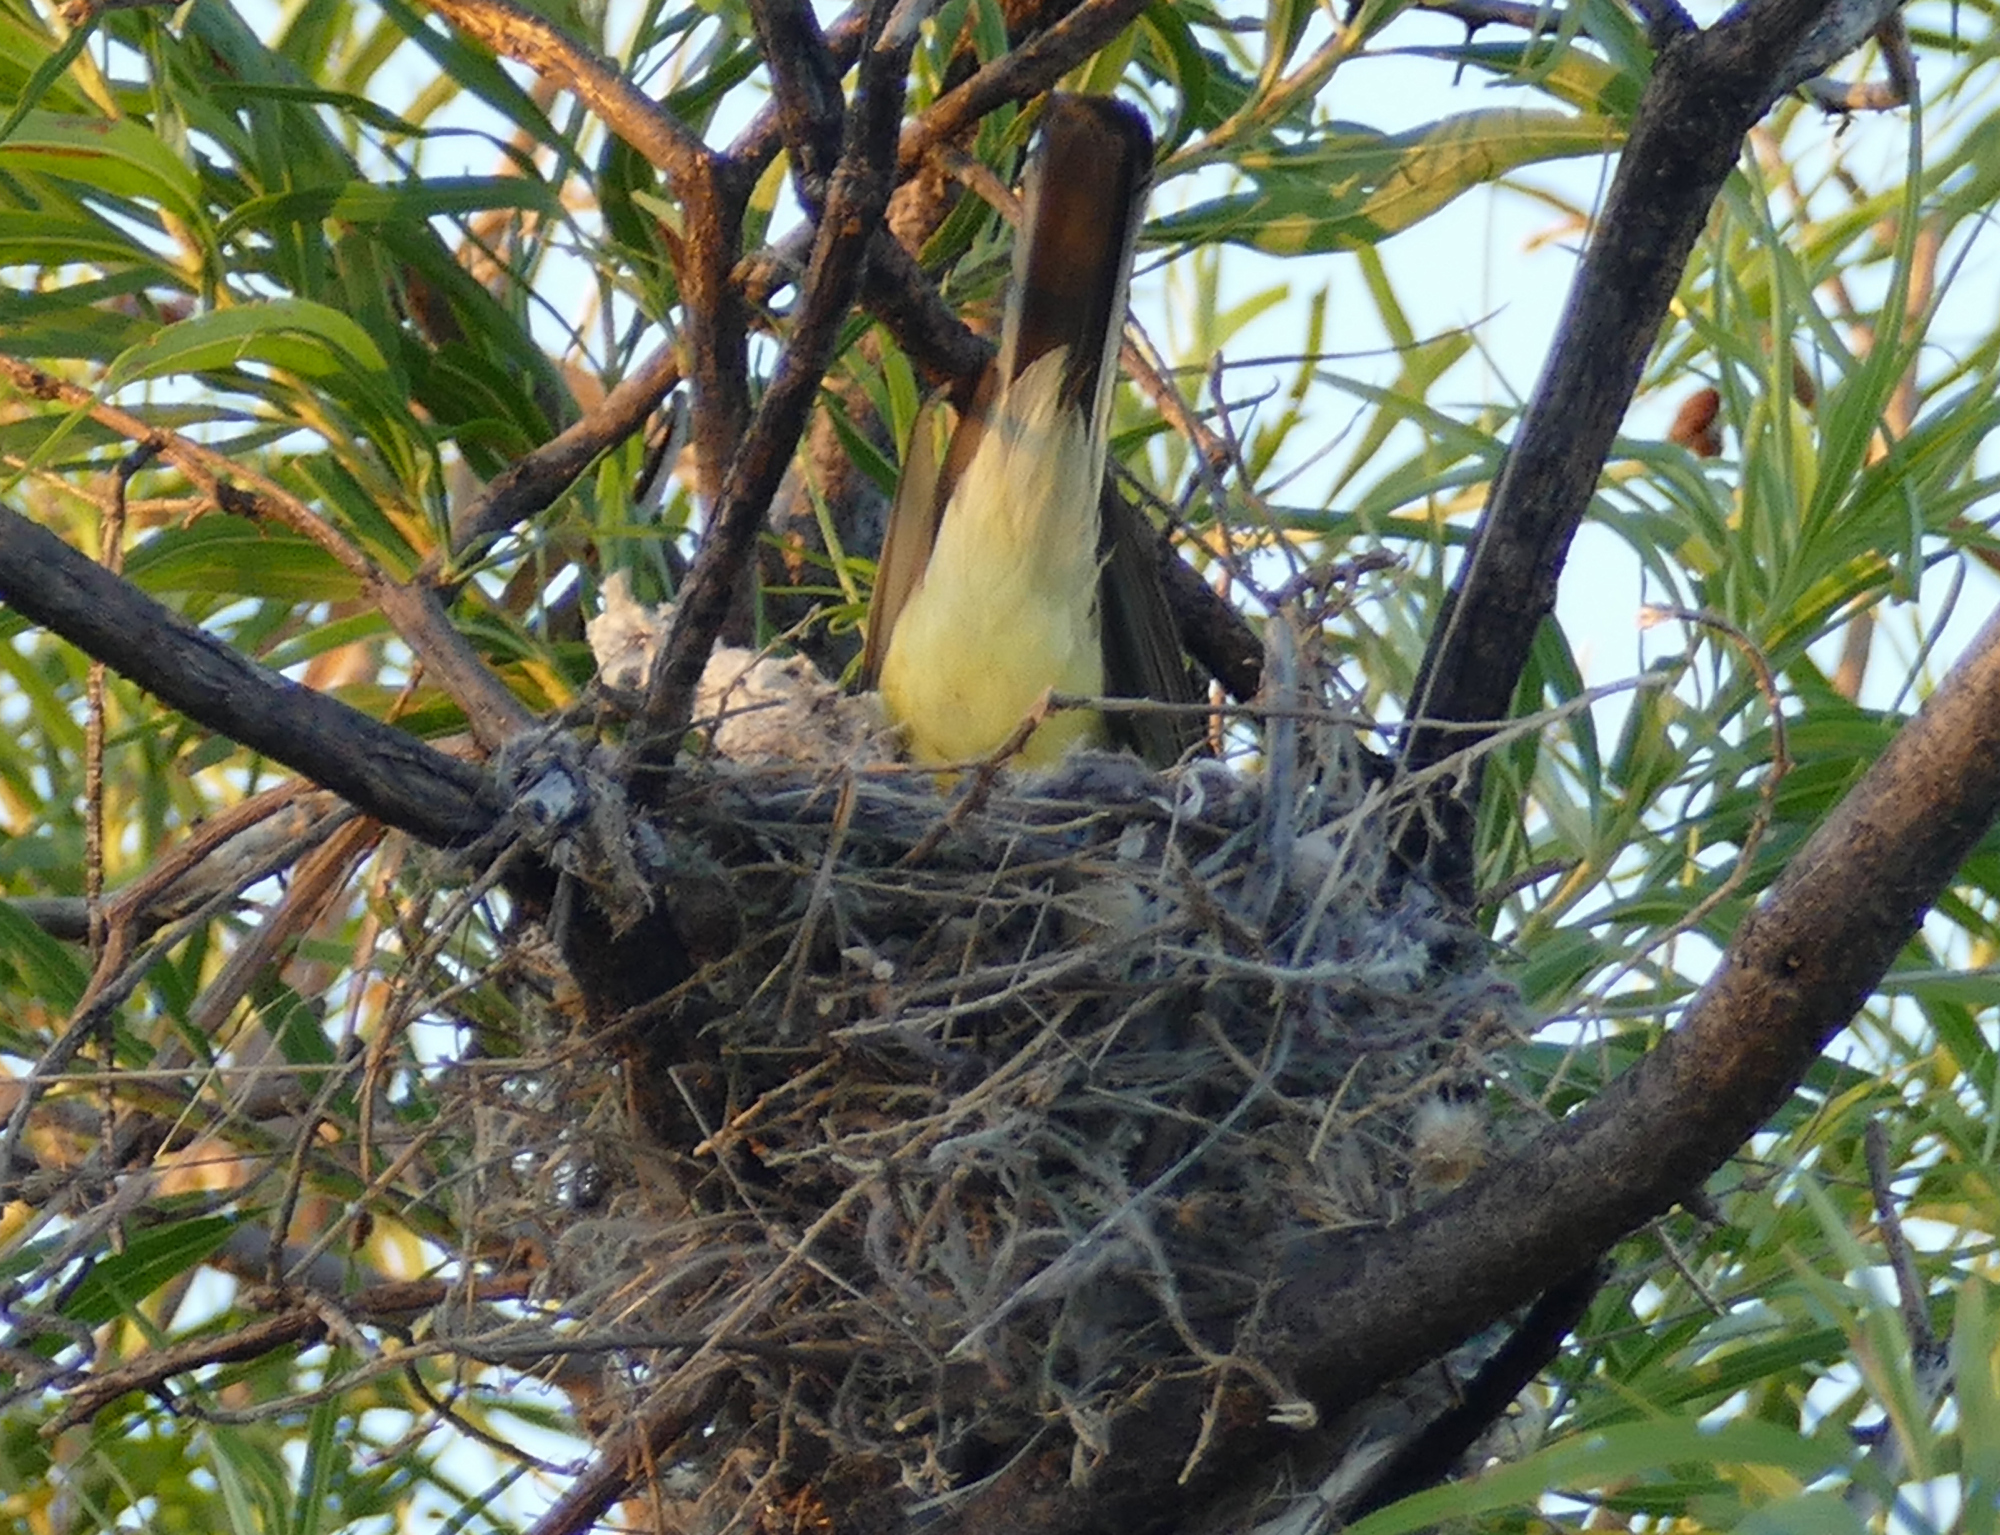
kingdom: Animalia
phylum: Chordata
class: Aves
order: Passeriformes
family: Tyrannidae
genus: Tyrannus
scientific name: Tyrannus verticalis
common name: Western kingbird
